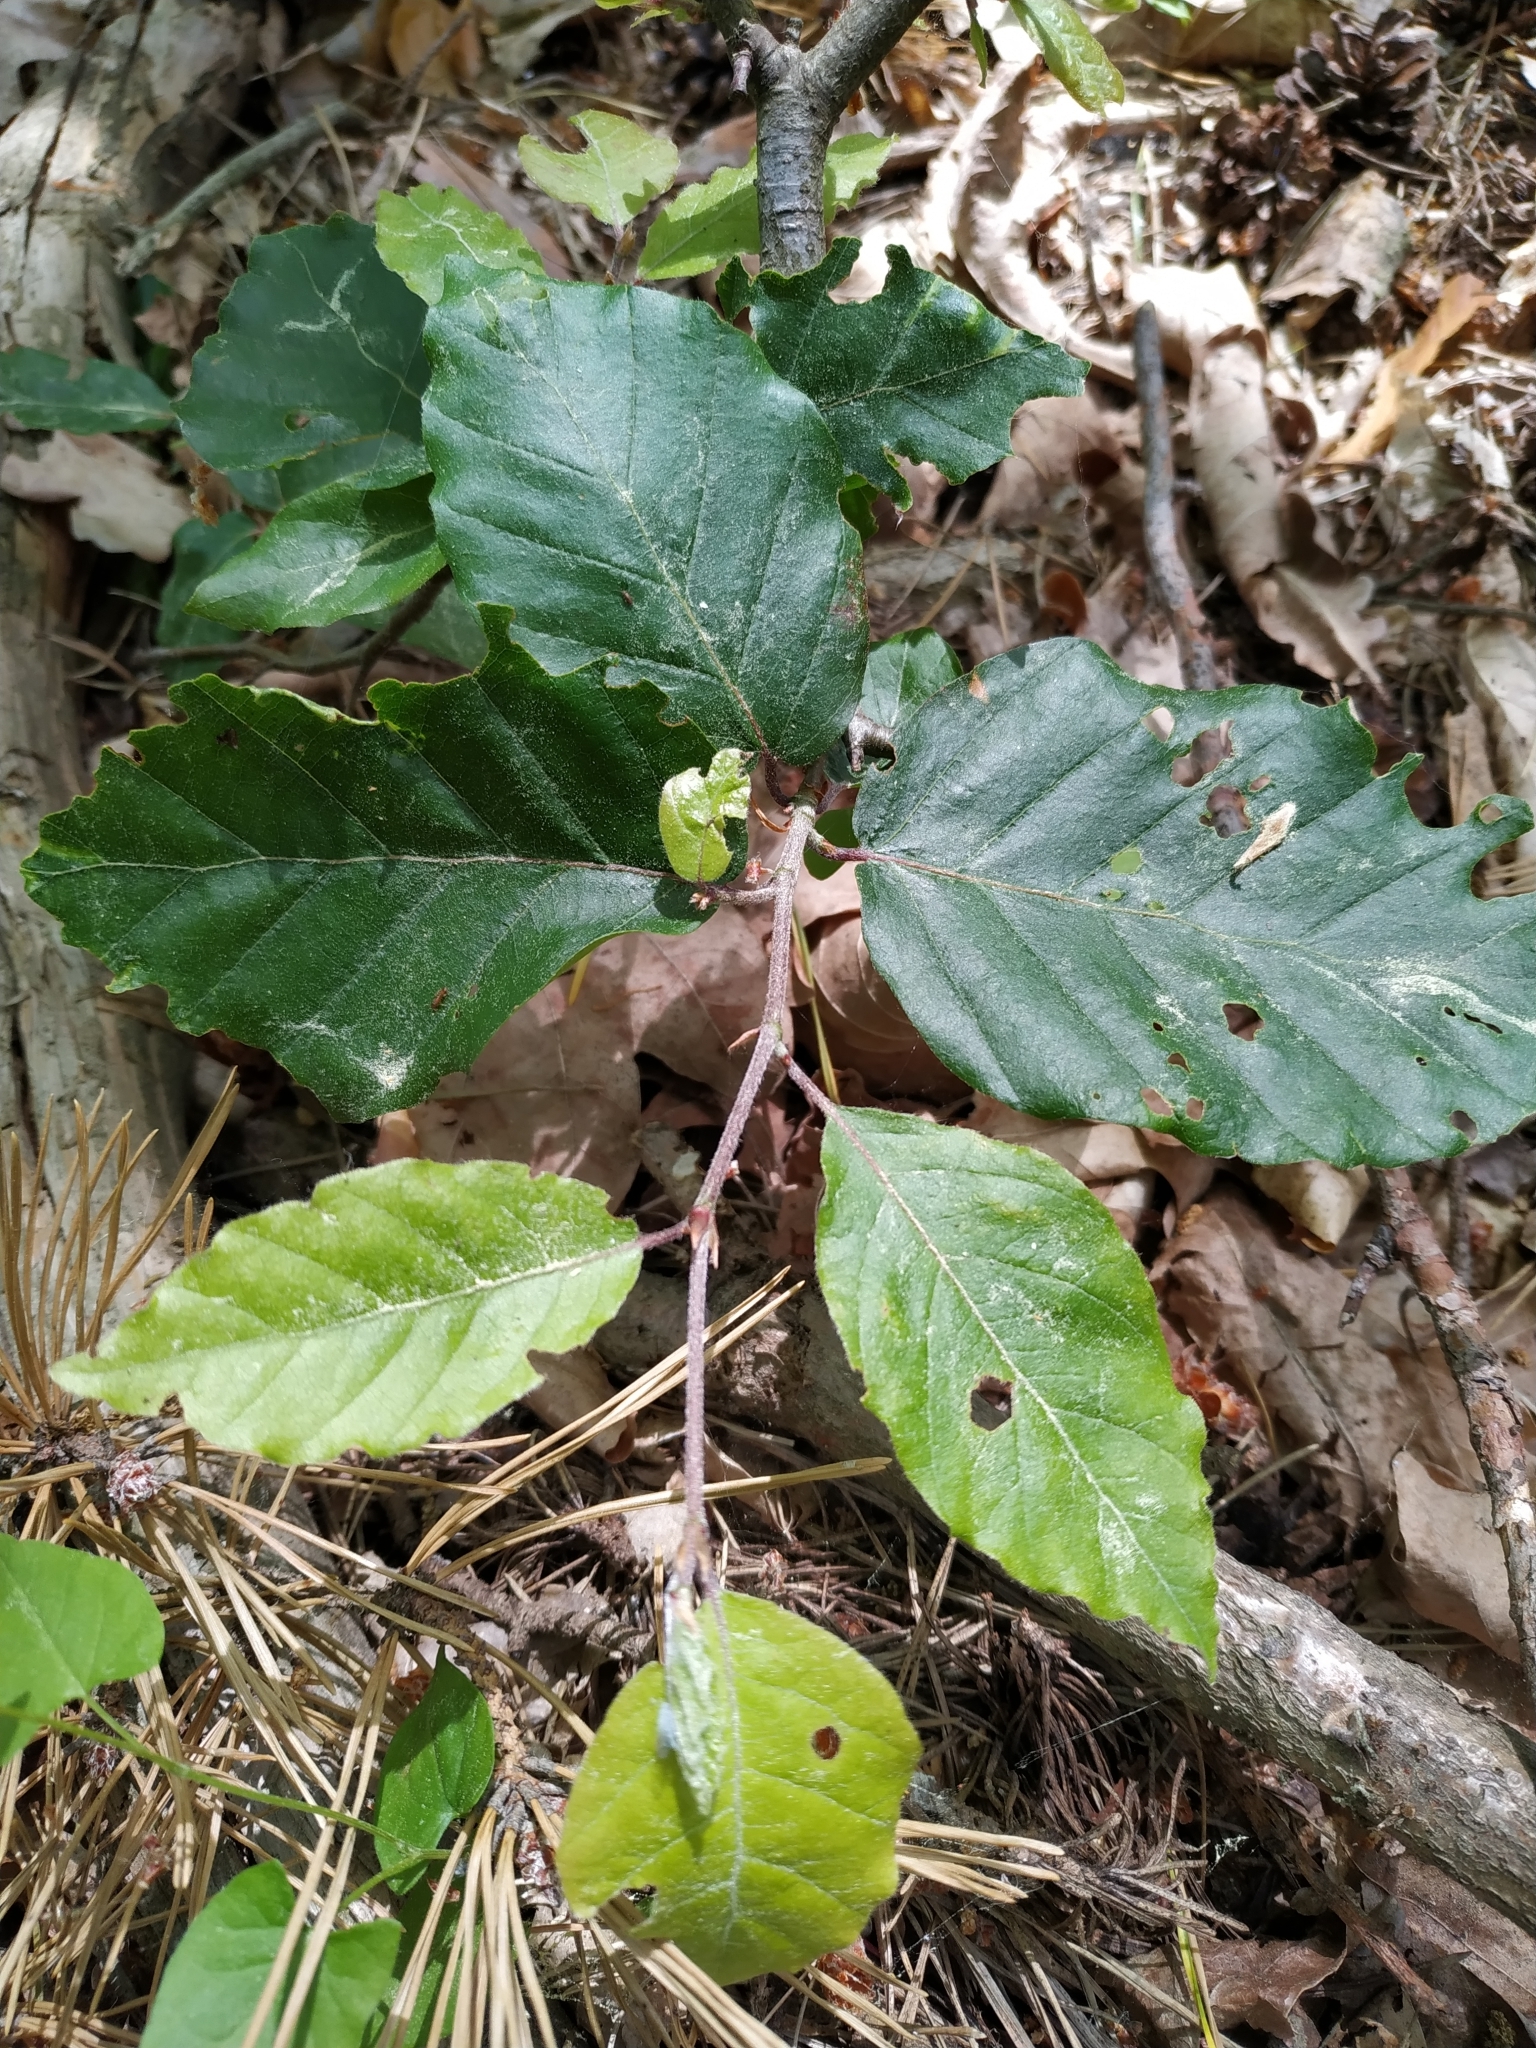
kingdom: Plantae
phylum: Tracheophyta
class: Magnoliopsida
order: Fagales
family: Fagaceae
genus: Fagus
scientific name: Fagus sylvatica
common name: Beech
